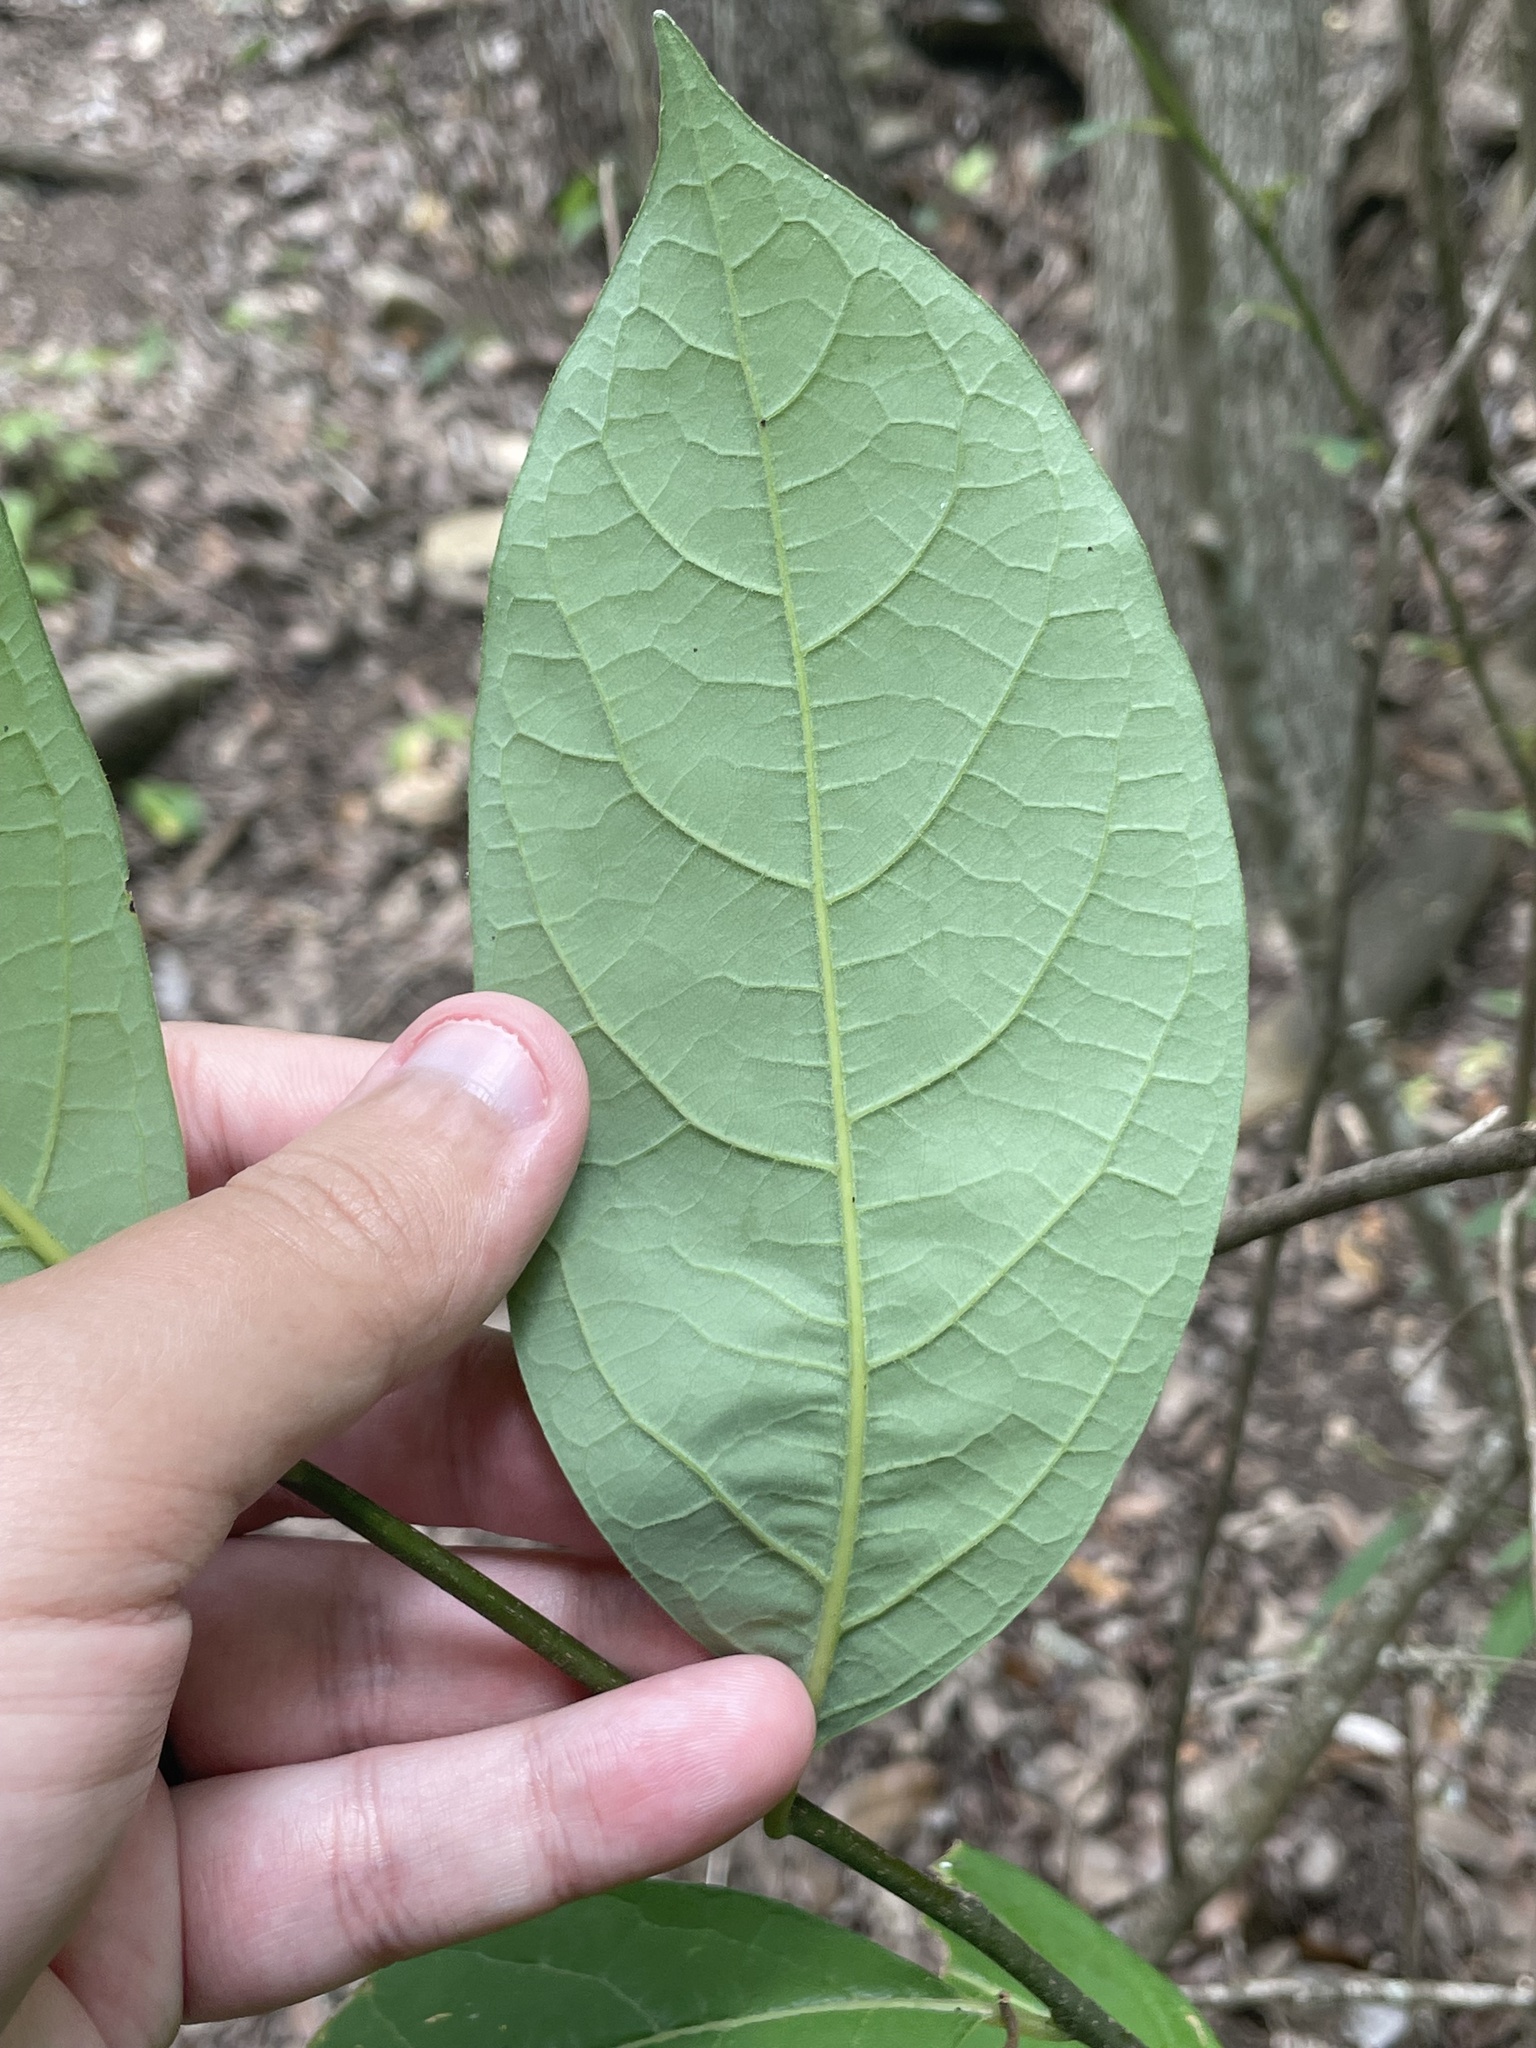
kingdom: Plantae
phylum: Tracheophyta
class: Magnoliopsida
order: Laurales
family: Lauraceae
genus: Lindera
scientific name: Lindera benzoin
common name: Spicebush
